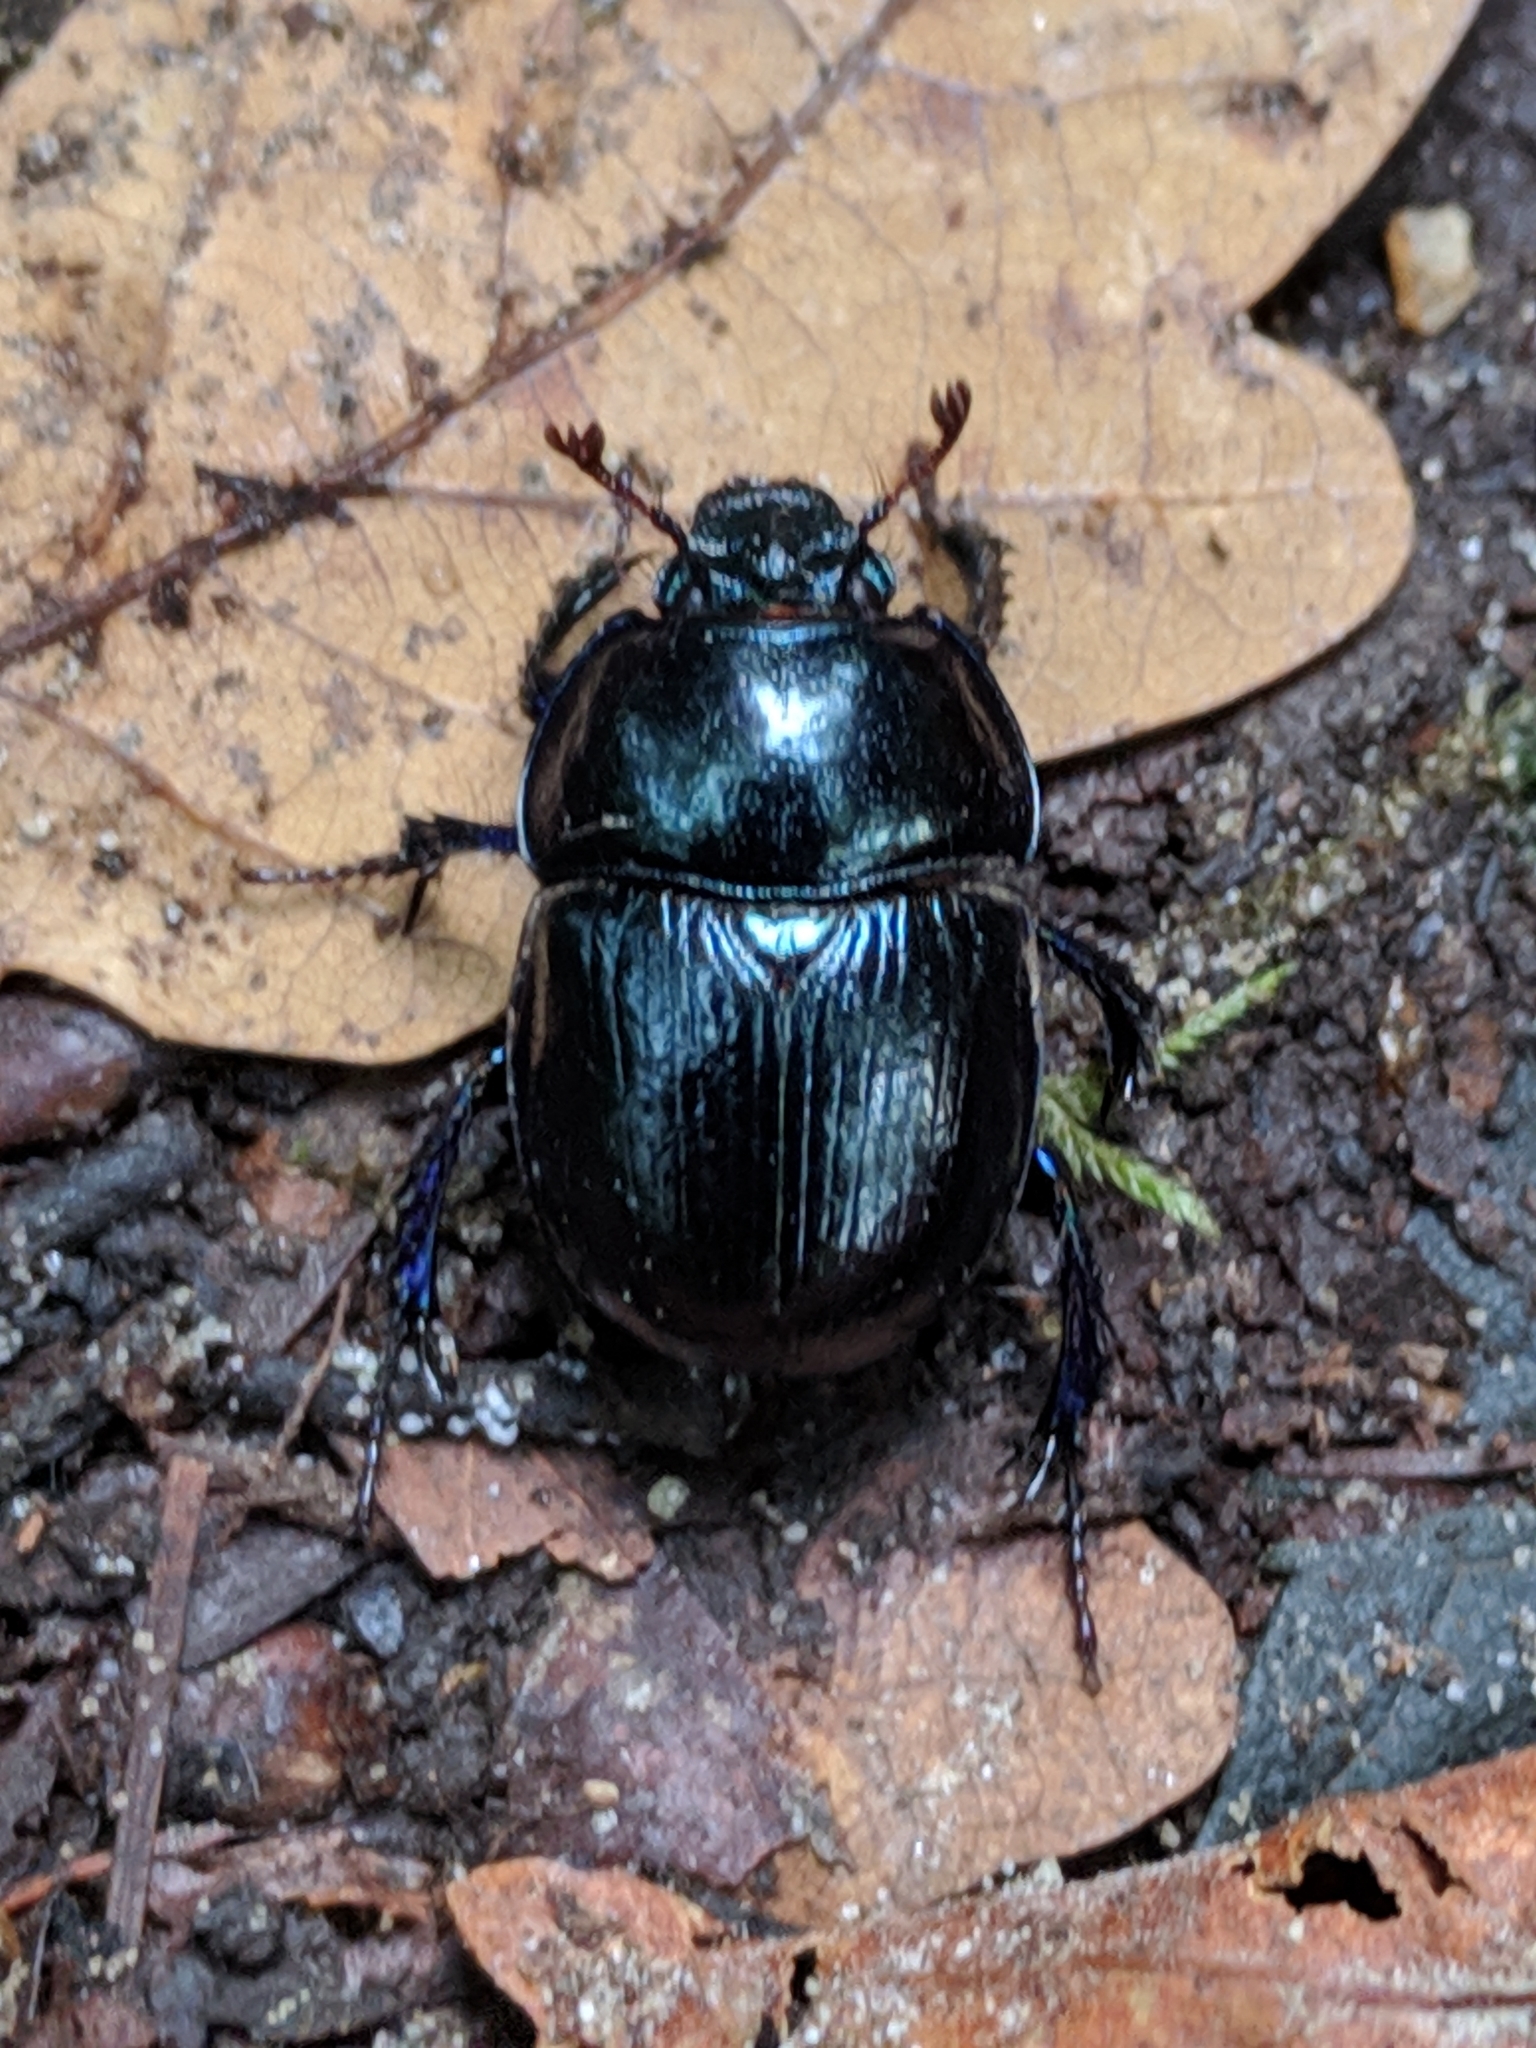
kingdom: Animalia
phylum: Arthropoda
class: Insecta
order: Coleoptera
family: Geotrupidae
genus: Anoplotrupes
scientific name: Anoplotrupes stercorosus
